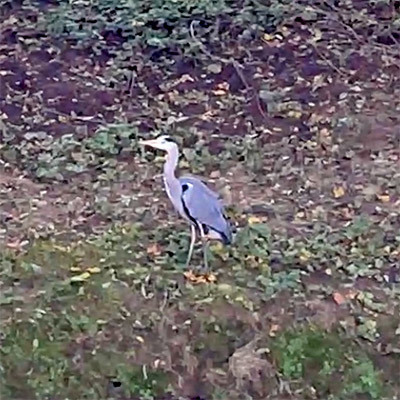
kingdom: Animalia
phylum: Chordata
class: Aves
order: Pelecaniformes
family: Ardeidae
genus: Ardea
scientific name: Ardea cinerea
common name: Grey heron
